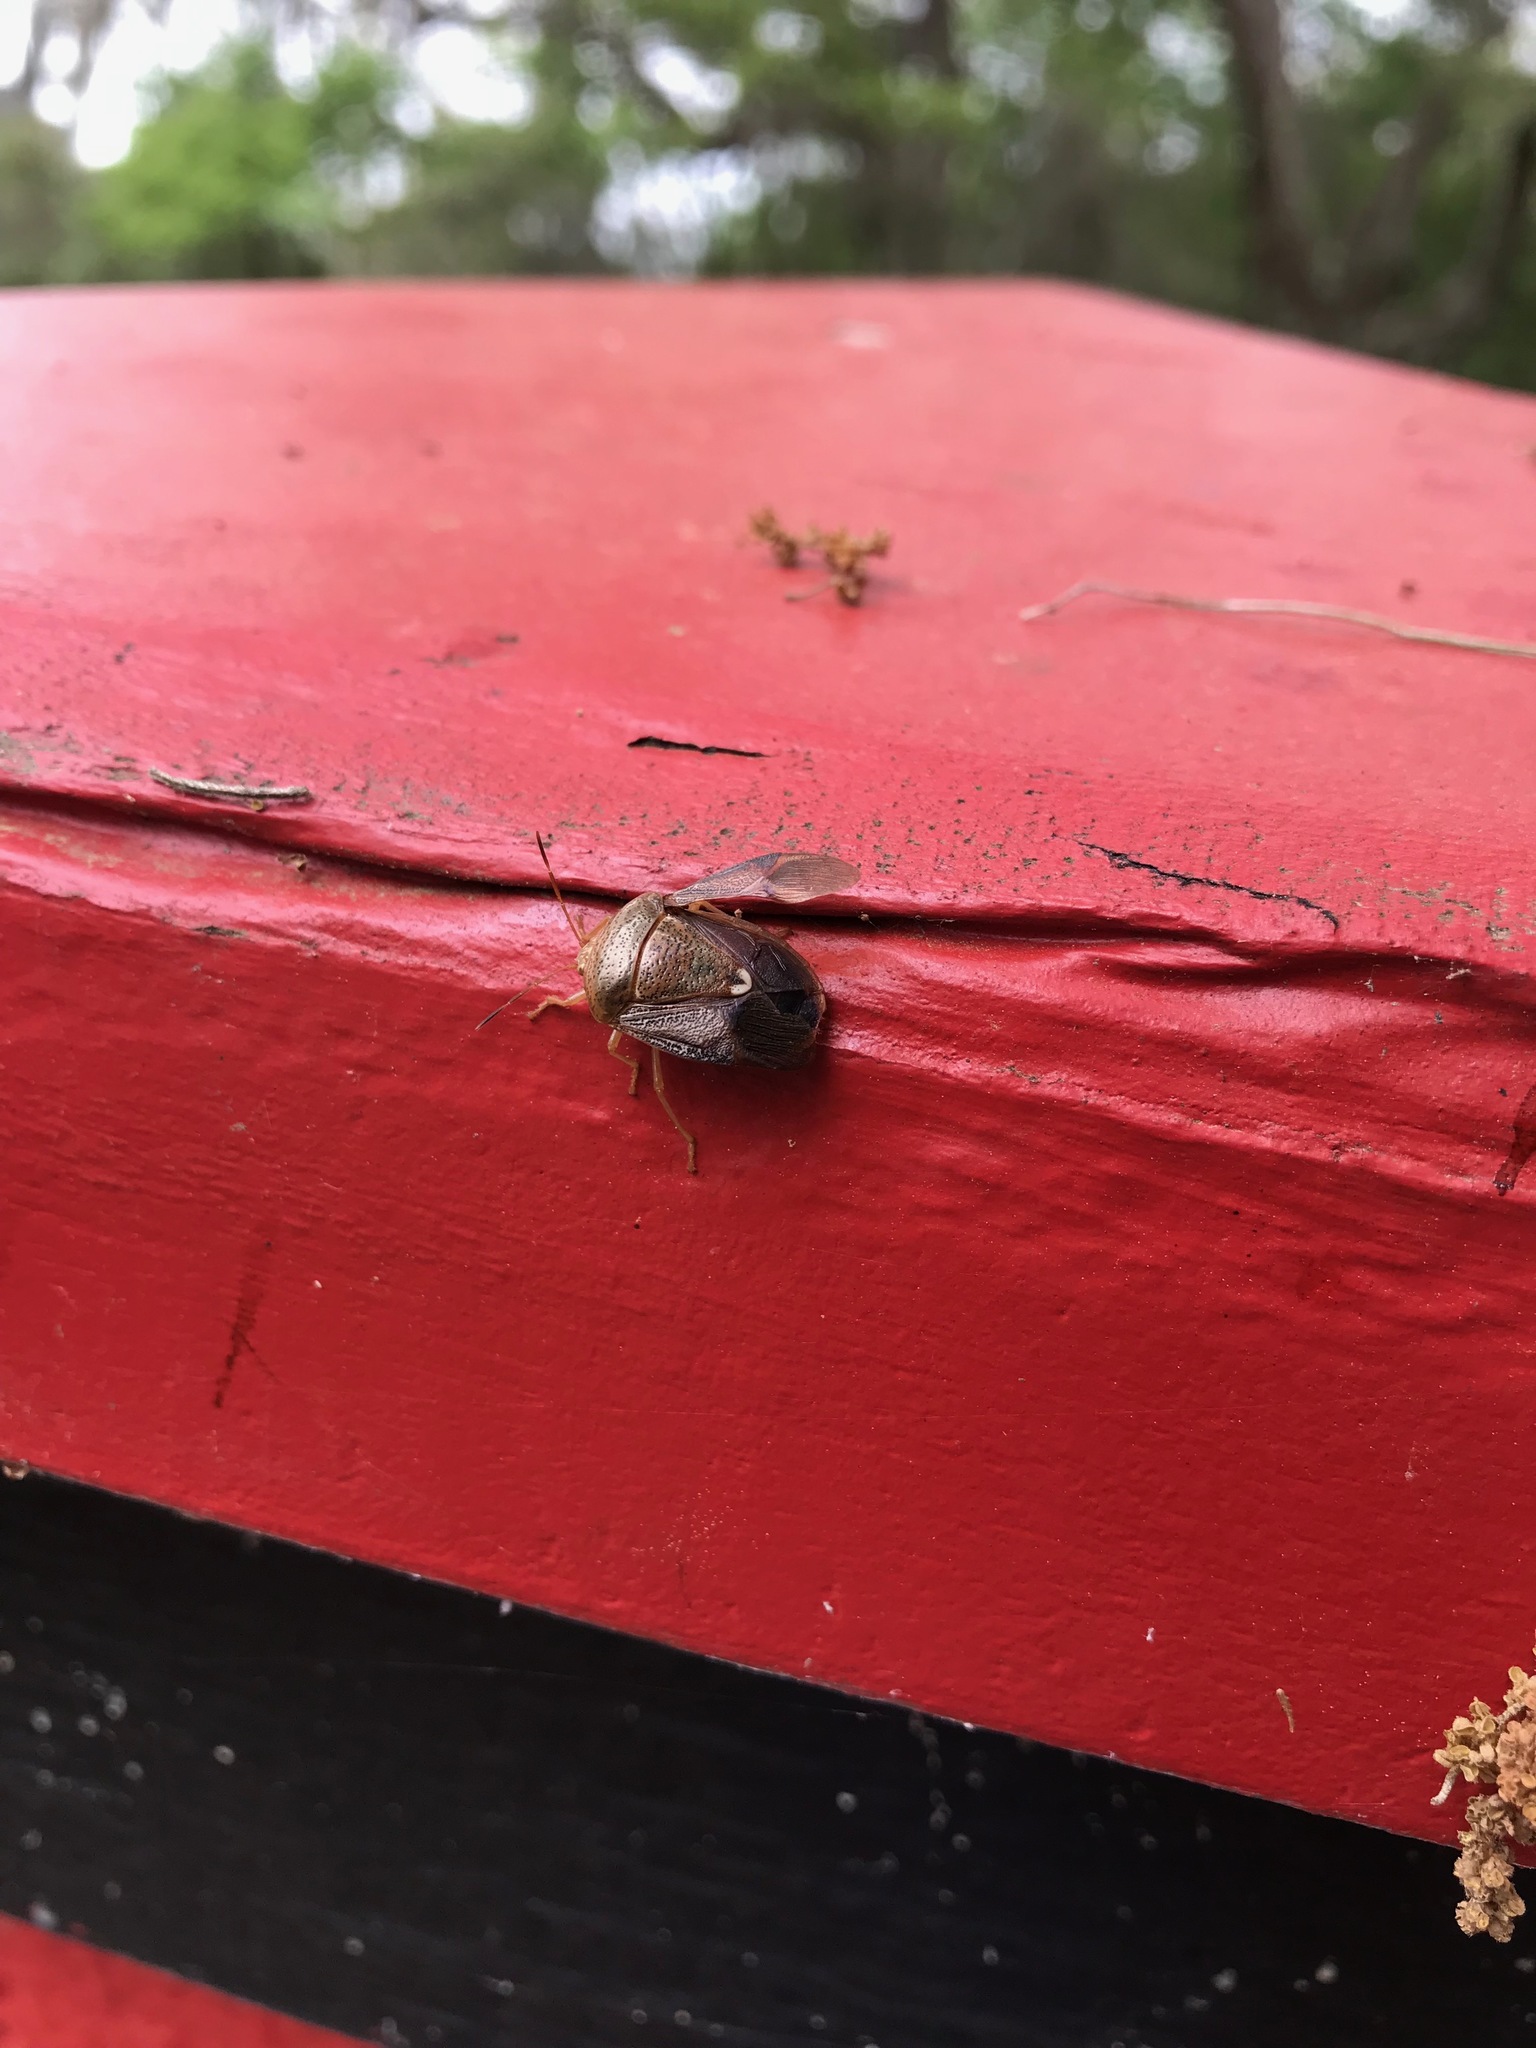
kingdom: Animalia
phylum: Arthropoda
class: Insecta
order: Hemiptera
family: Pentatomidae
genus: Edessa
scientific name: Edessa bifida
